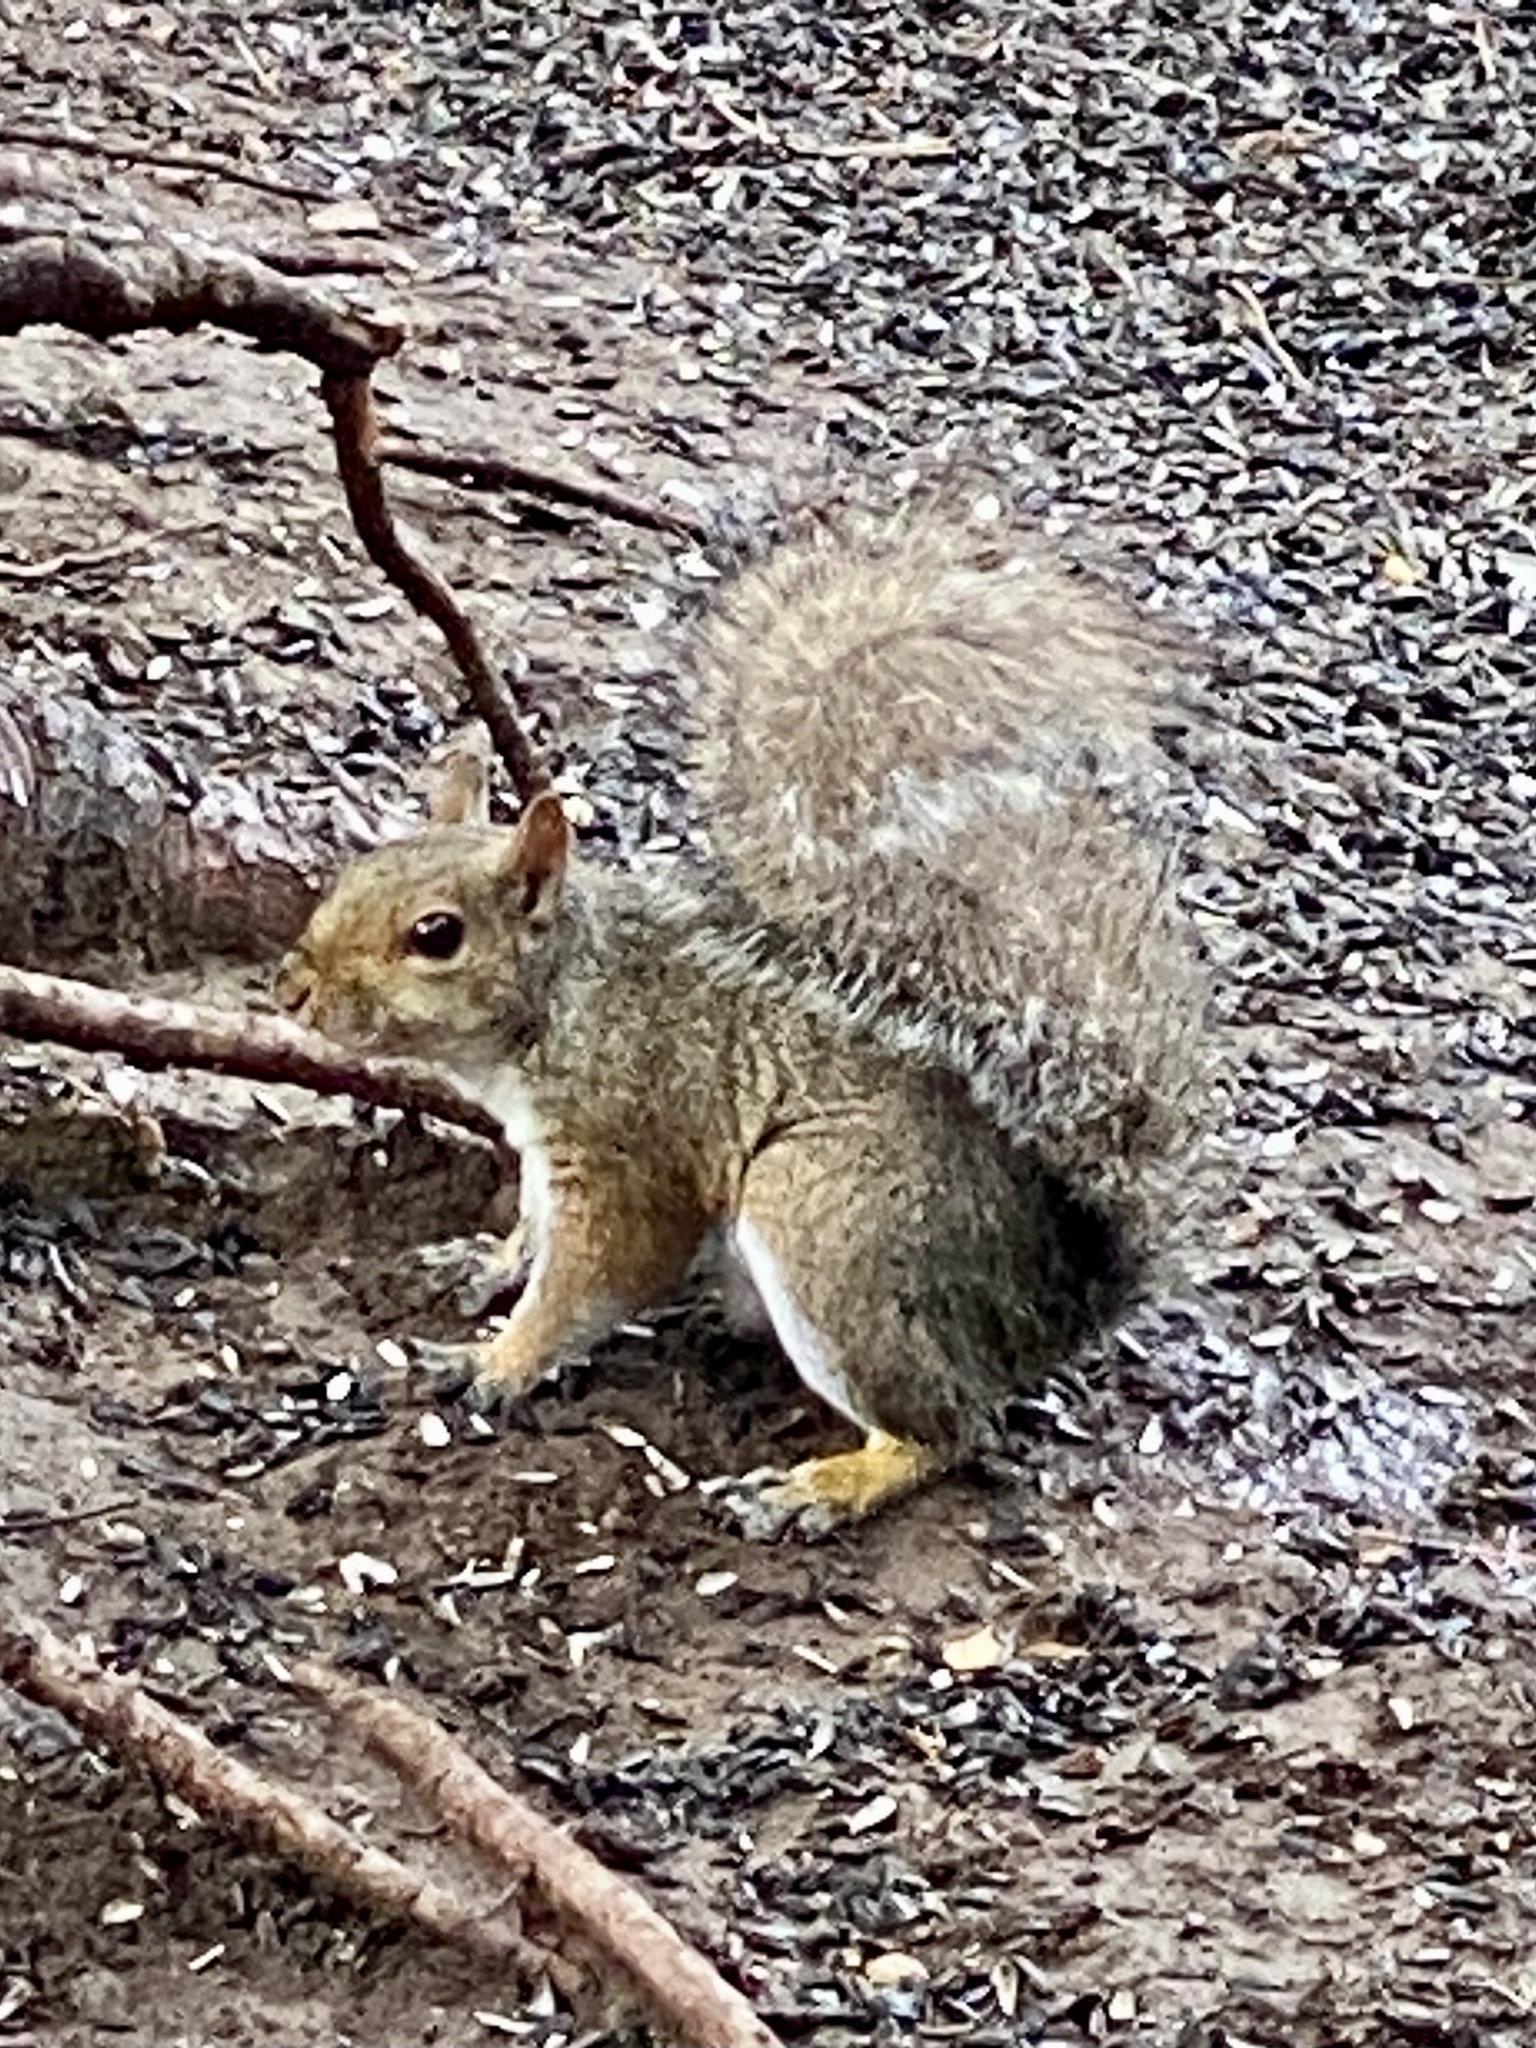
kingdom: Animalia
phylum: Chordata
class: Mammalia
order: Rodentia
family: Sciuridae
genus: Sciurus
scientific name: Sciurus carolinensis
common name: Eastern gray squirrel
